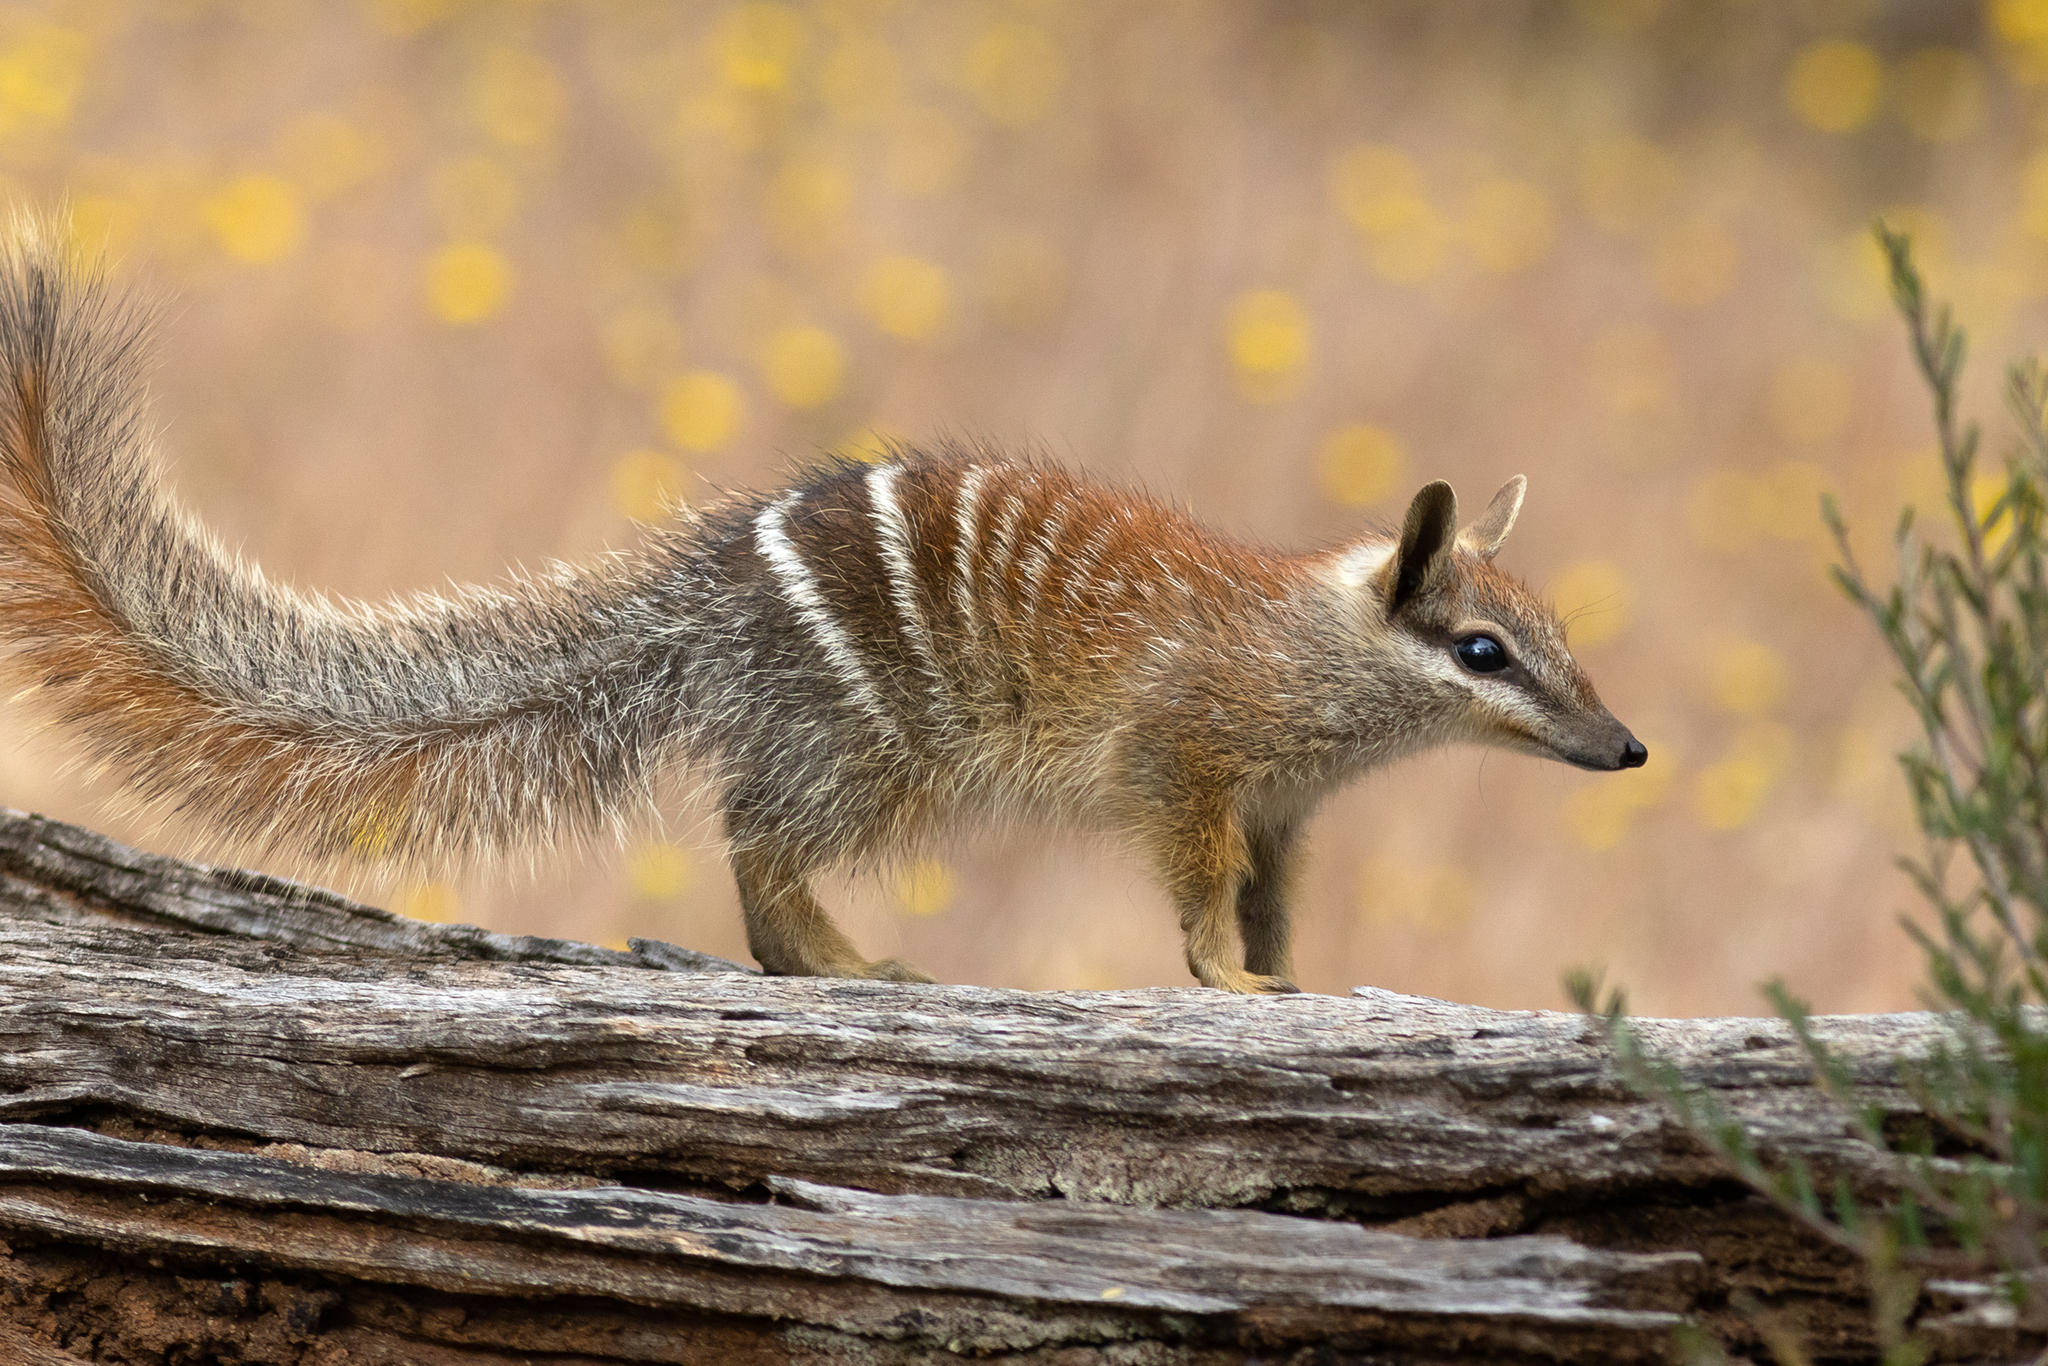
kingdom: Animalia
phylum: Chordata
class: Mammalia
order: Dasyuromorphia
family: Myrmecobiidae
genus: Myrmecobius
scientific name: Myrmecobius fasciatus
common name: Numbat
